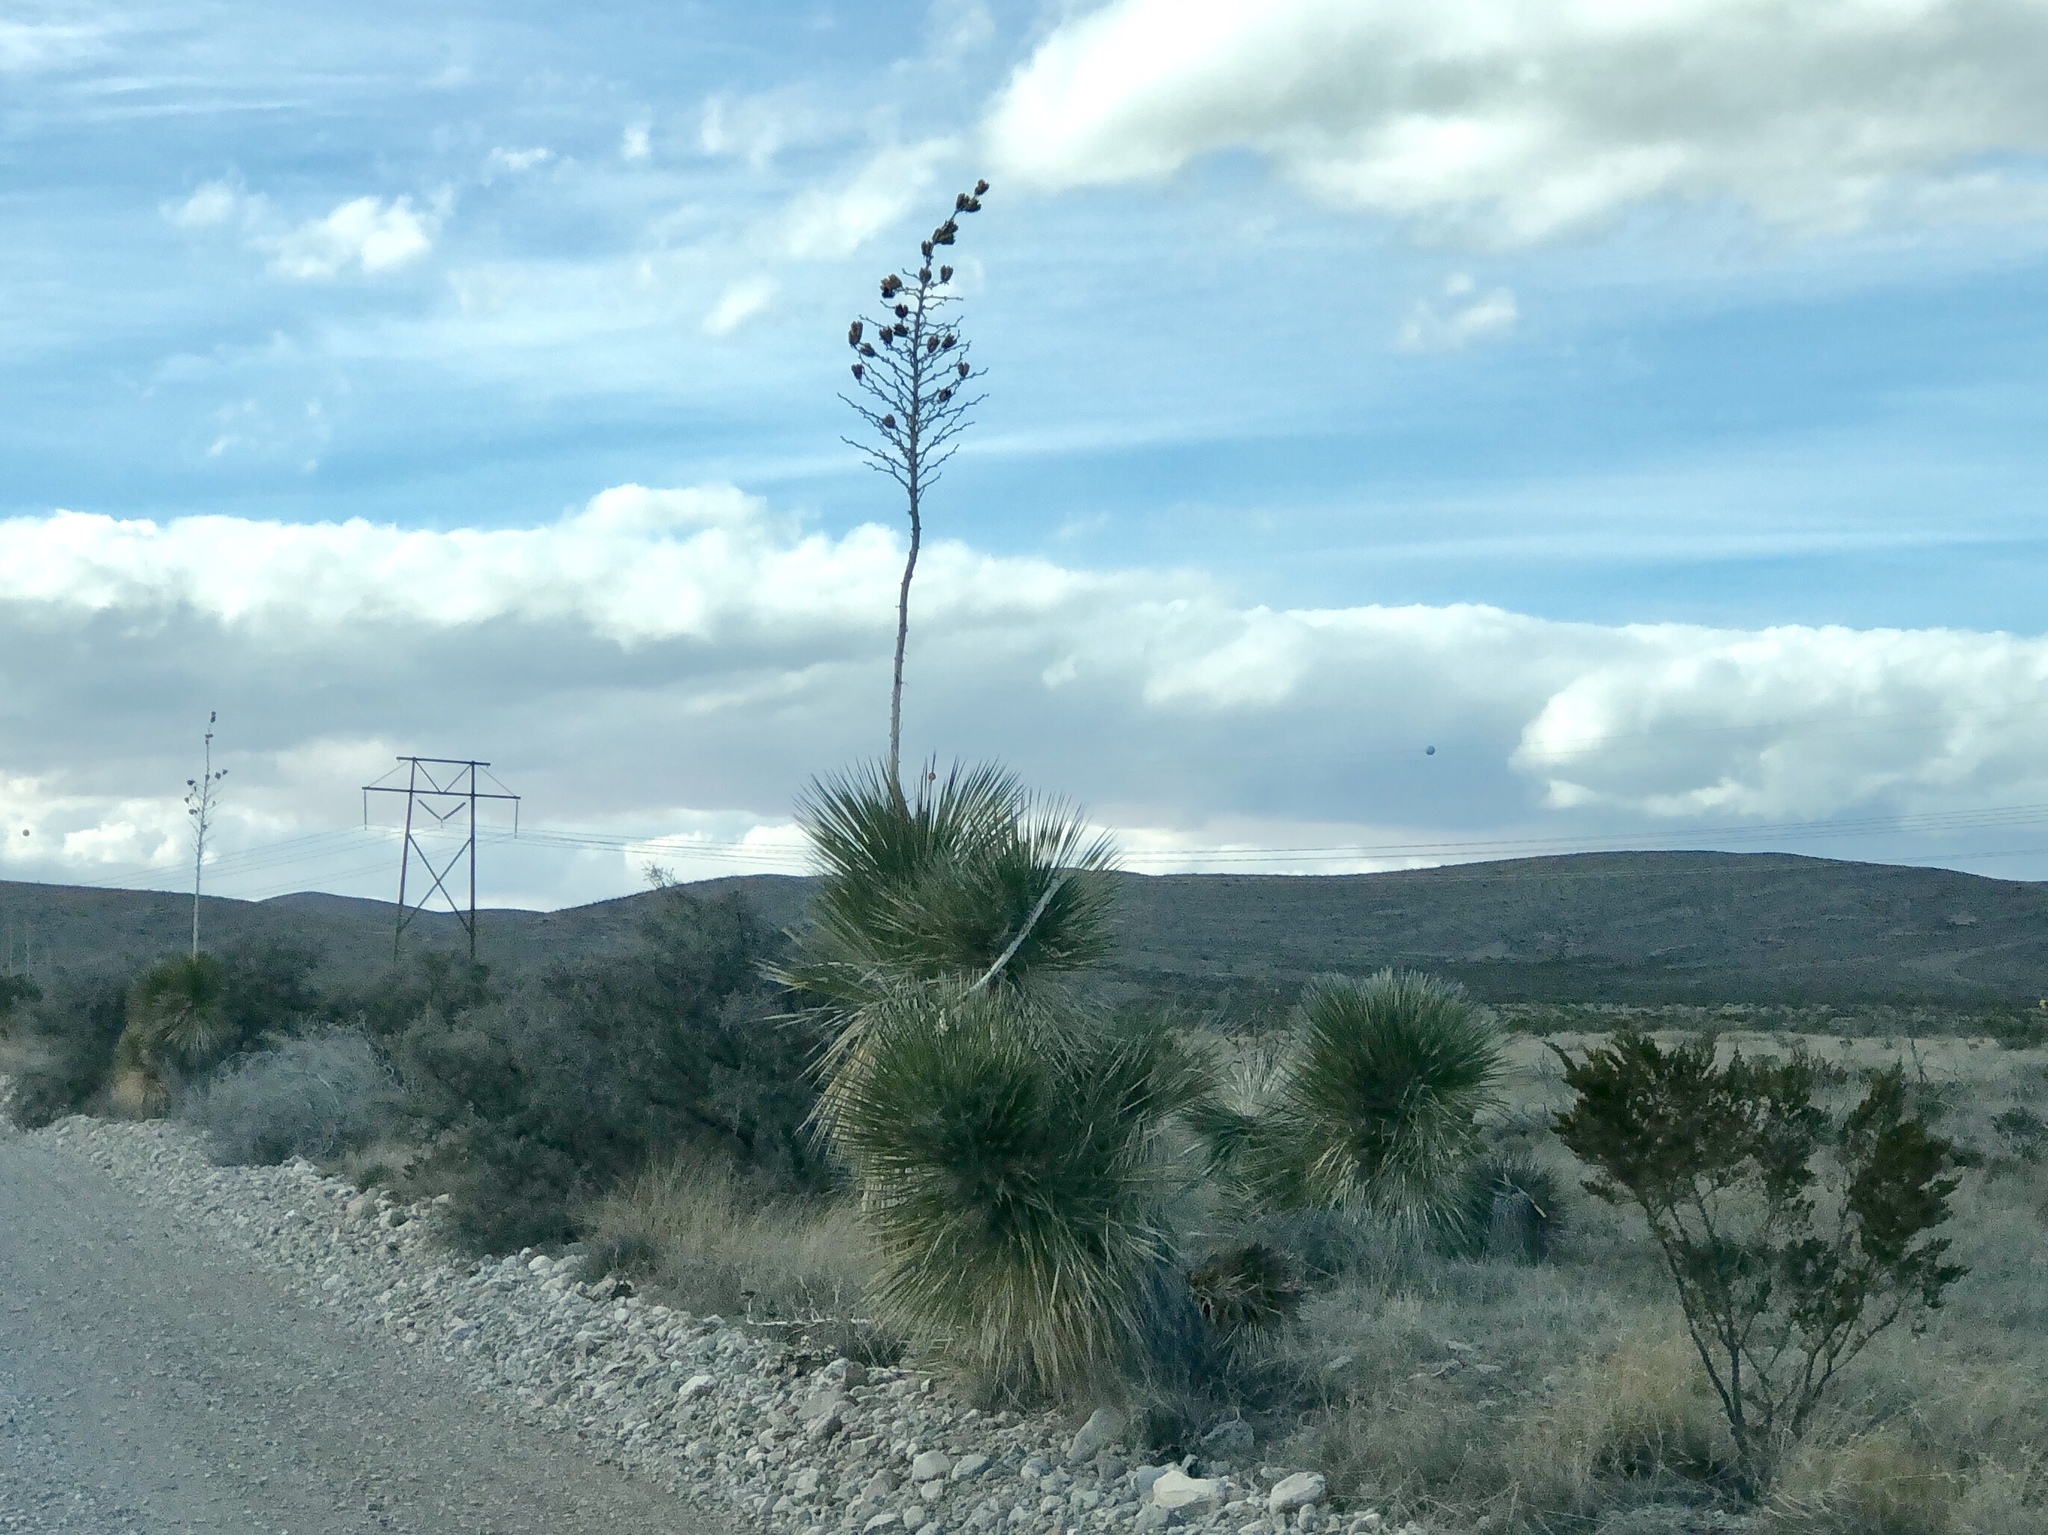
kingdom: Plantae
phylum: Tracheophyta
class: Liliopsida
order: Asparagales
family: Asparagaceae
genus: Yucca
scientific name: Yucca elata
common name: Palmella
